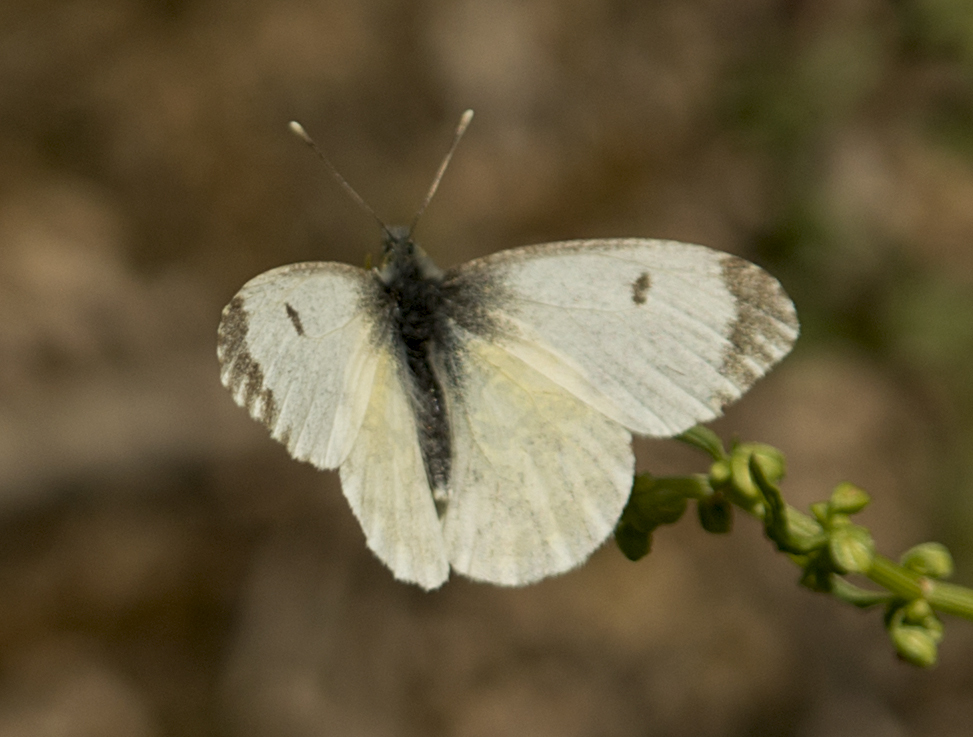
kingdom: Animalia
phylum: Arthropoda
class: Insecta
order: Lepidoptera
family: Pieridae
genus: Anthocharis
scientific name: Anthocharis cardamines
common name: Orange-tip
